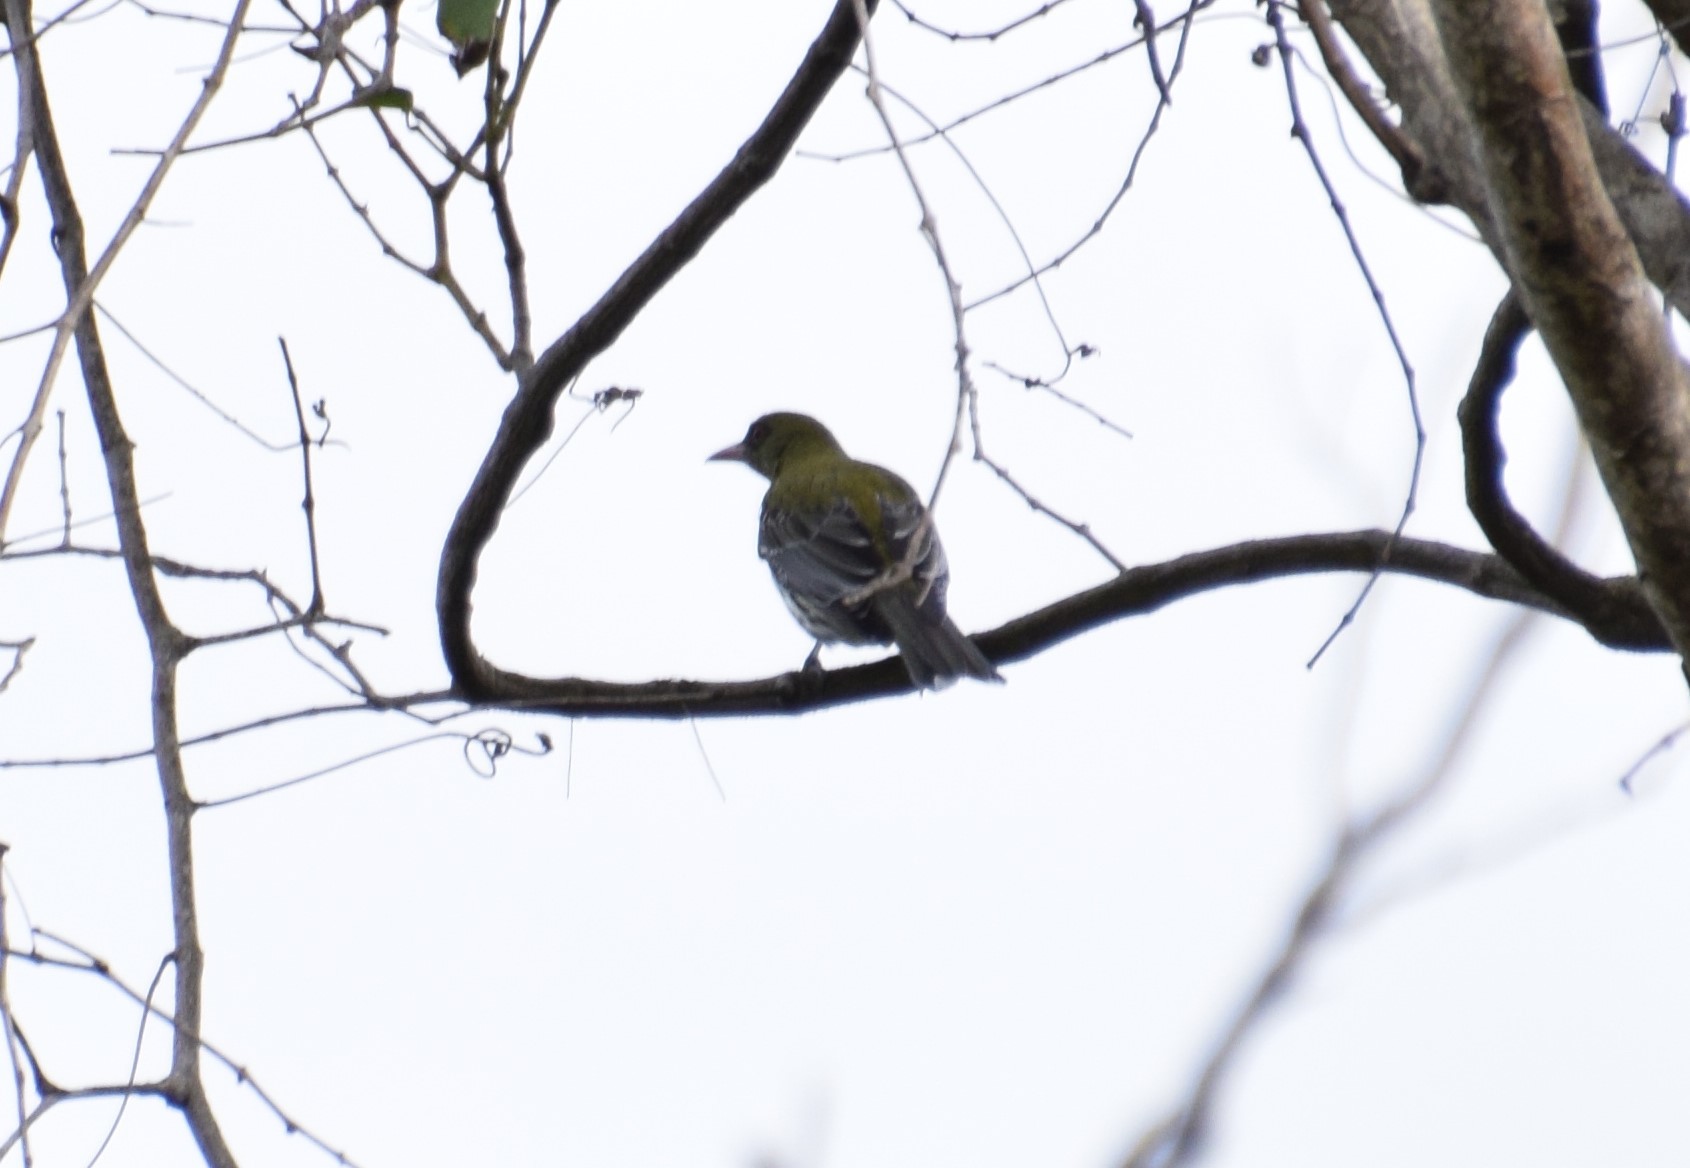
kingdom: Animalia
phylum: Chordata
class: Aves
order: Passeriformes
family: Oriolidae
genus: Oriolus
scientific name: Oriolus sagittatus
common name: Olive-backed oriole
